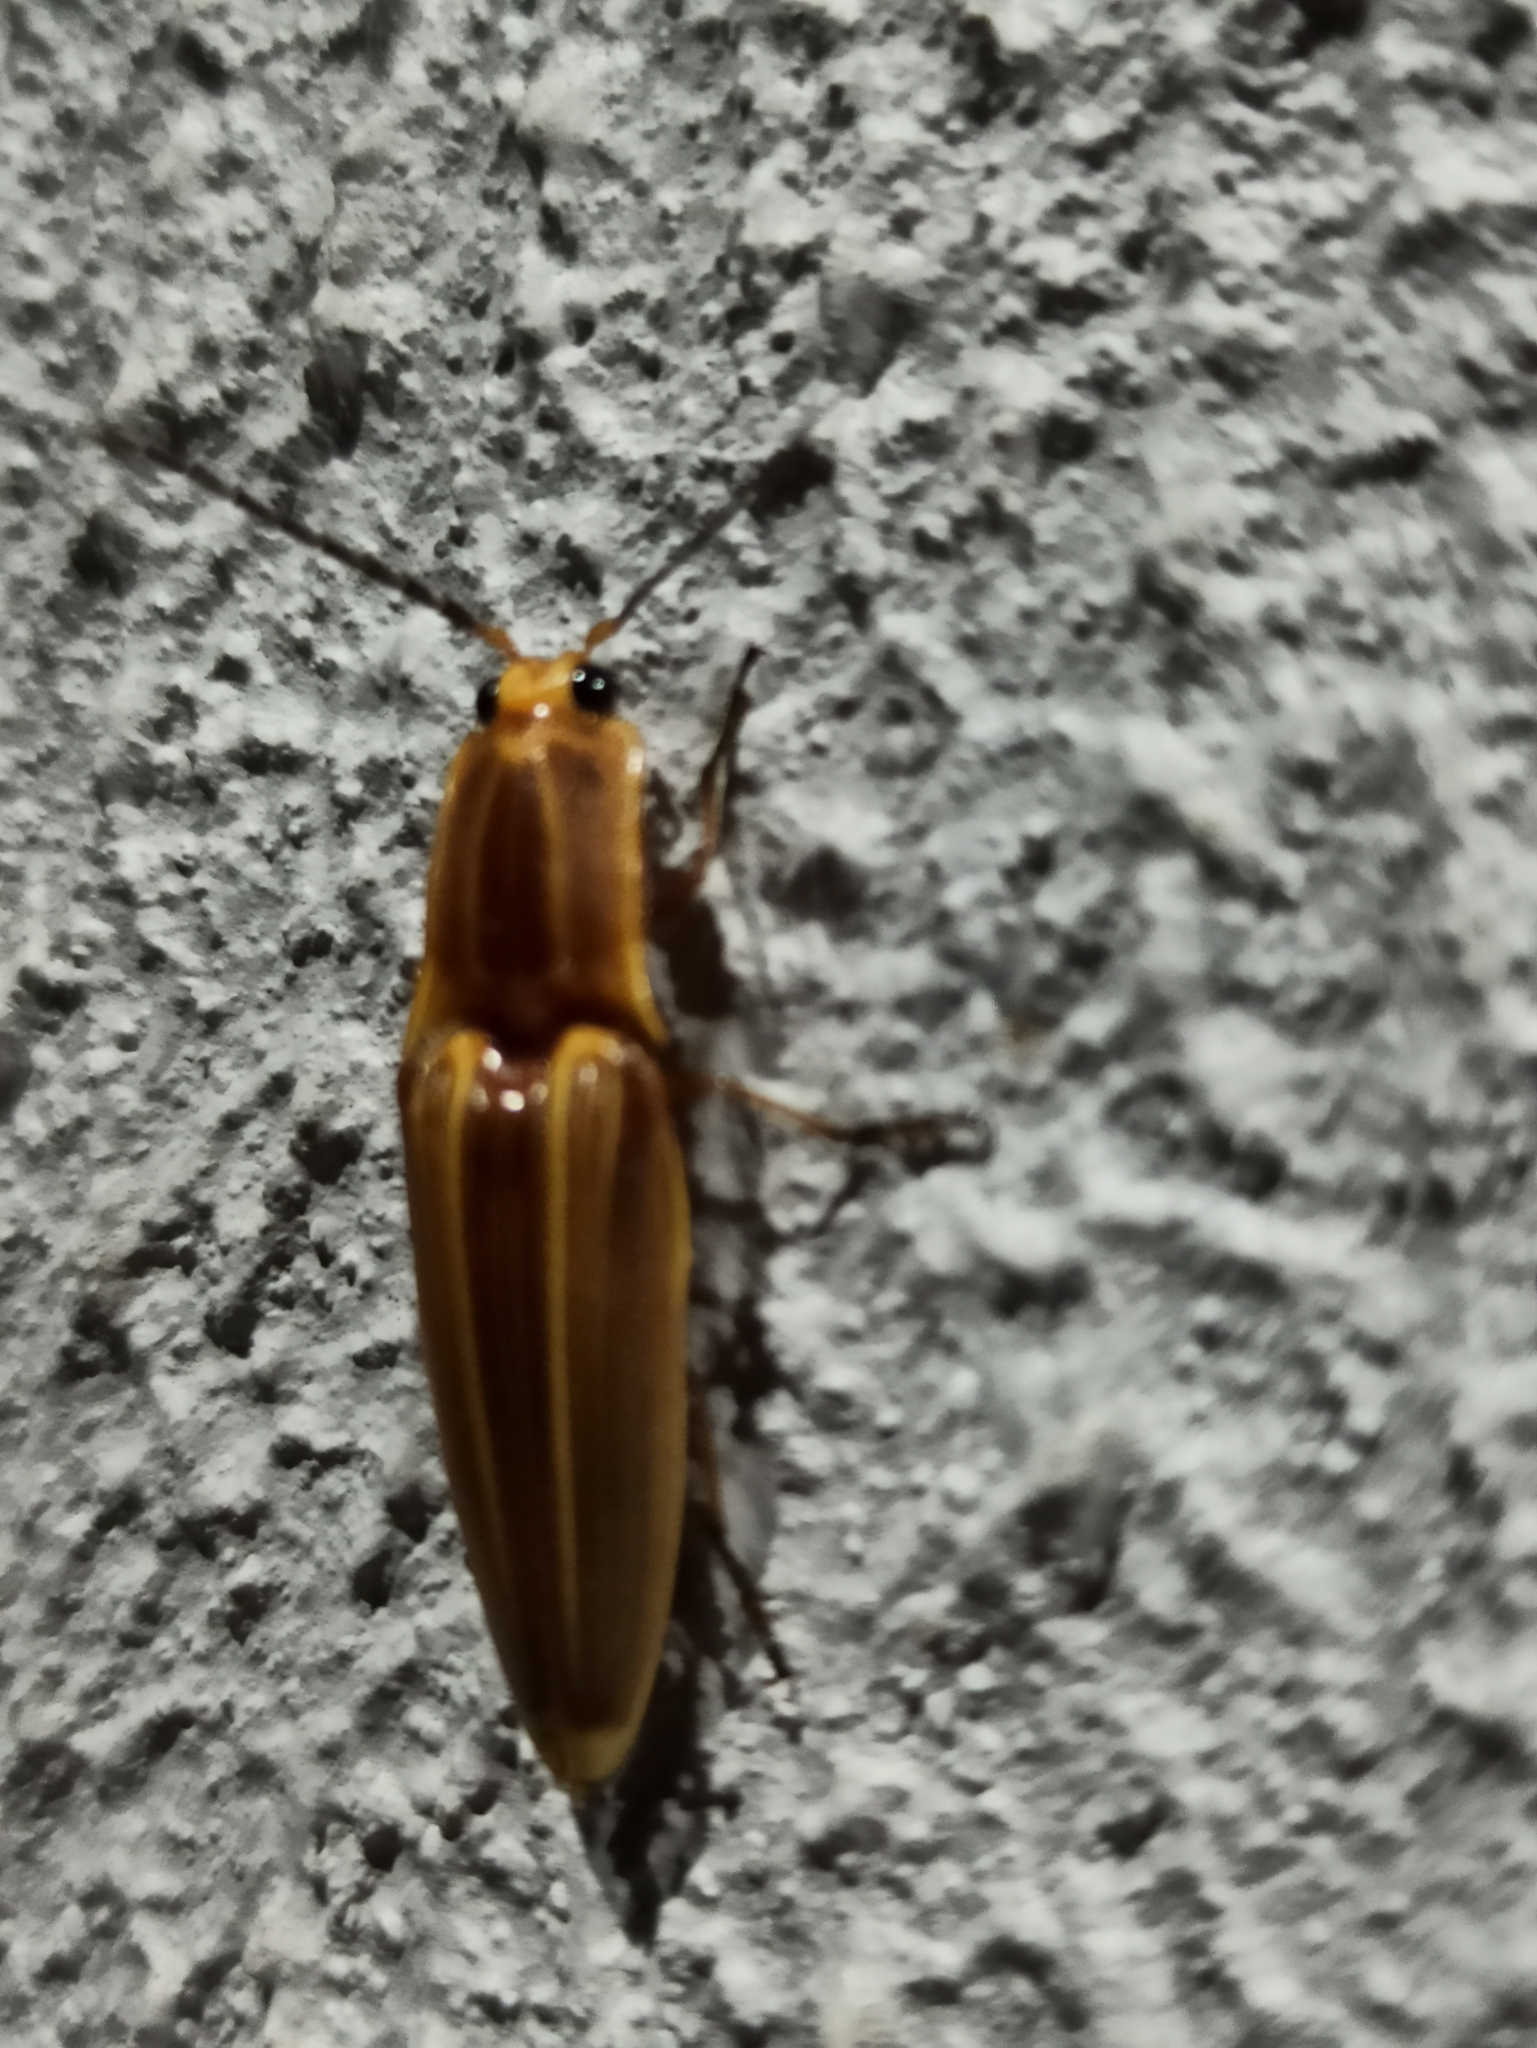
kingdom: Animalia
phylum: Arthropoda
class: Insecta
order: Coleoptera
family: Elateridae
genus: Semiotus
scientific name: Semiotus ligneus
